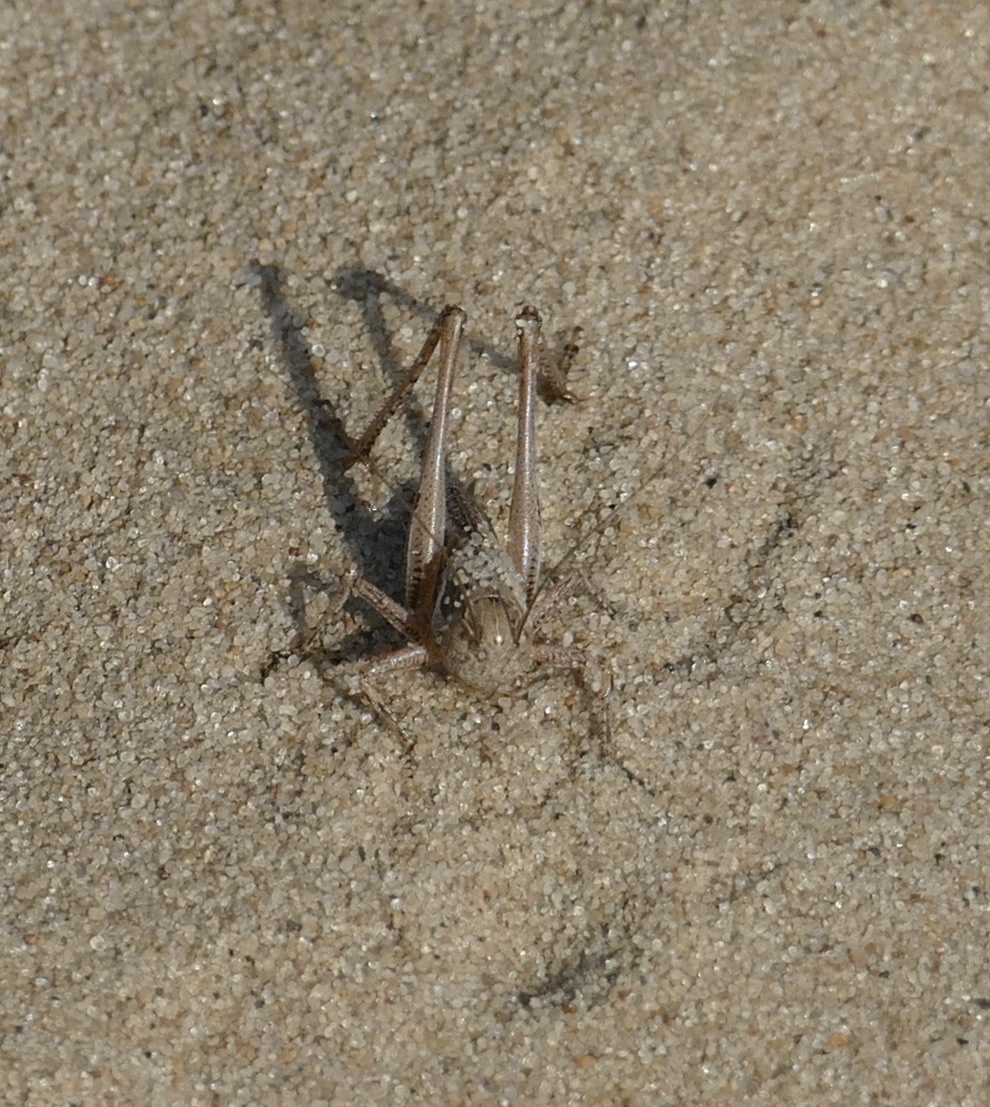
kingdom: Animalia
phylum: Arthropoda
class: Insecta
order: Orthoptera
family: Tettigoniidae
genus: Platycleis
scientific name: Platycleis albopunctata
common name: Grey bush-cricket
